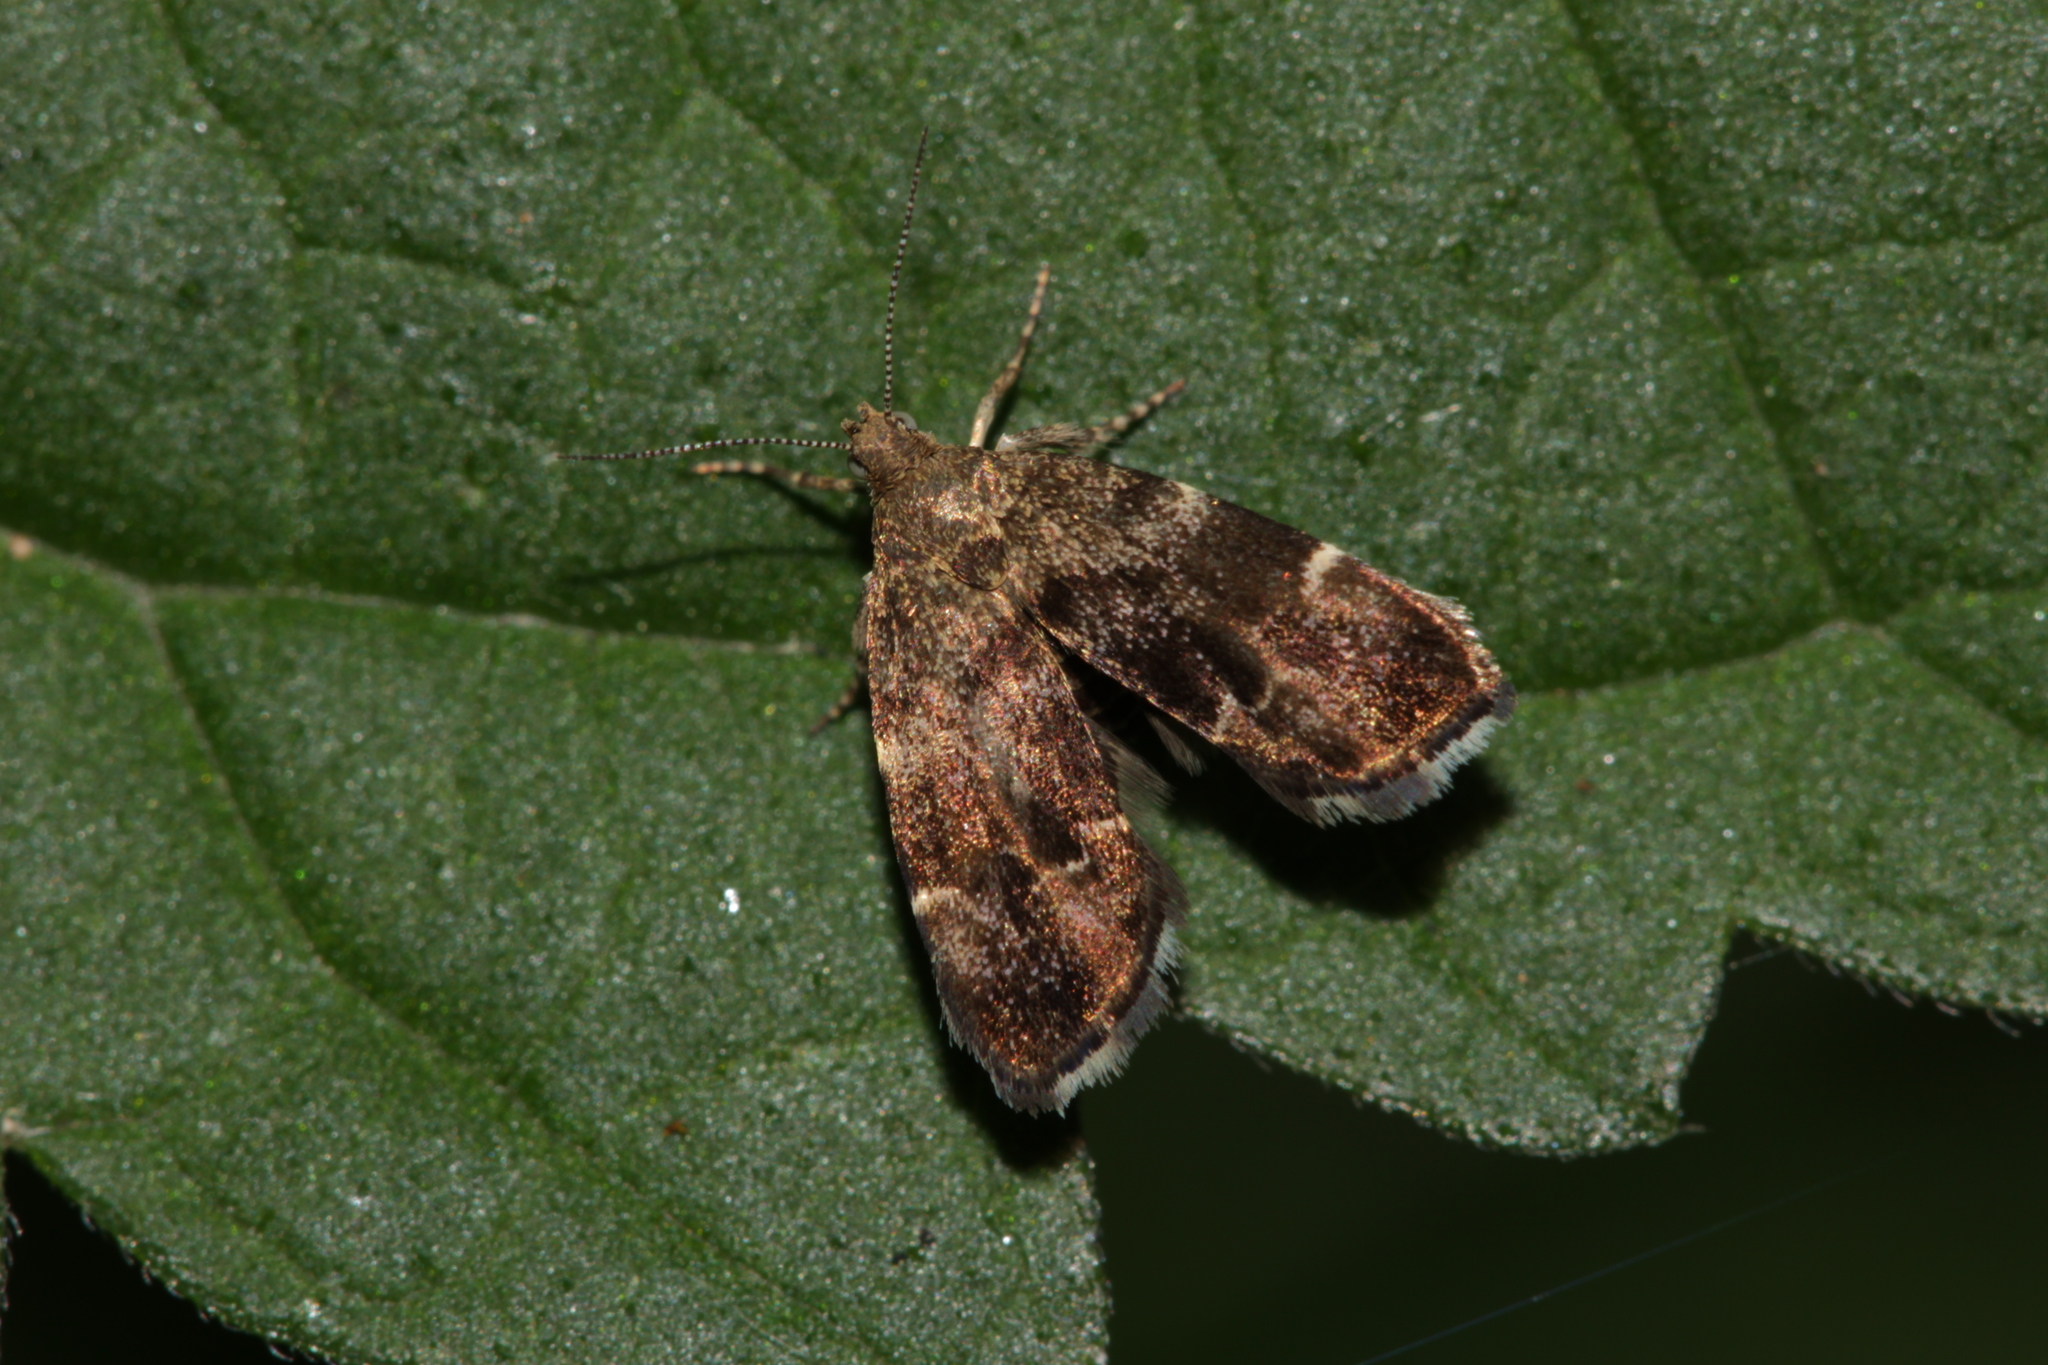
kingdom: Animalia
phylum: Arthropoda
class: Insecta
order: Lepidoptera
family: Choreutidae
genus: Anthophila
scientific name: Anthophila fabriciana
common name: Nettle-tap
